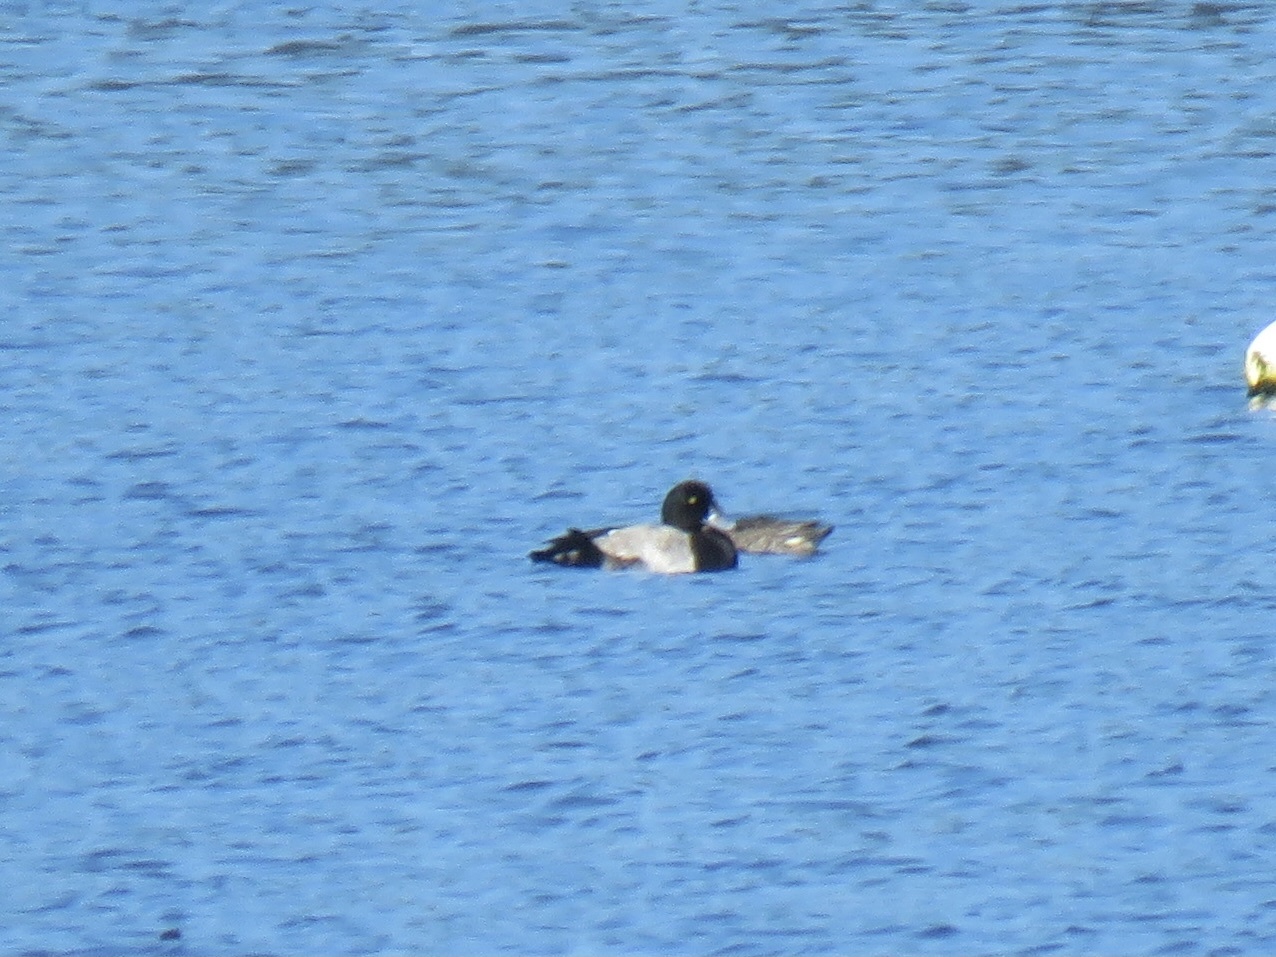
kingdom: Animalia
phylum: Chordata
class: Aves
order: Anseriformes
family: Anatidae
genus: Aythya
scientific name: Aythya marila
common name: Greater scaup
